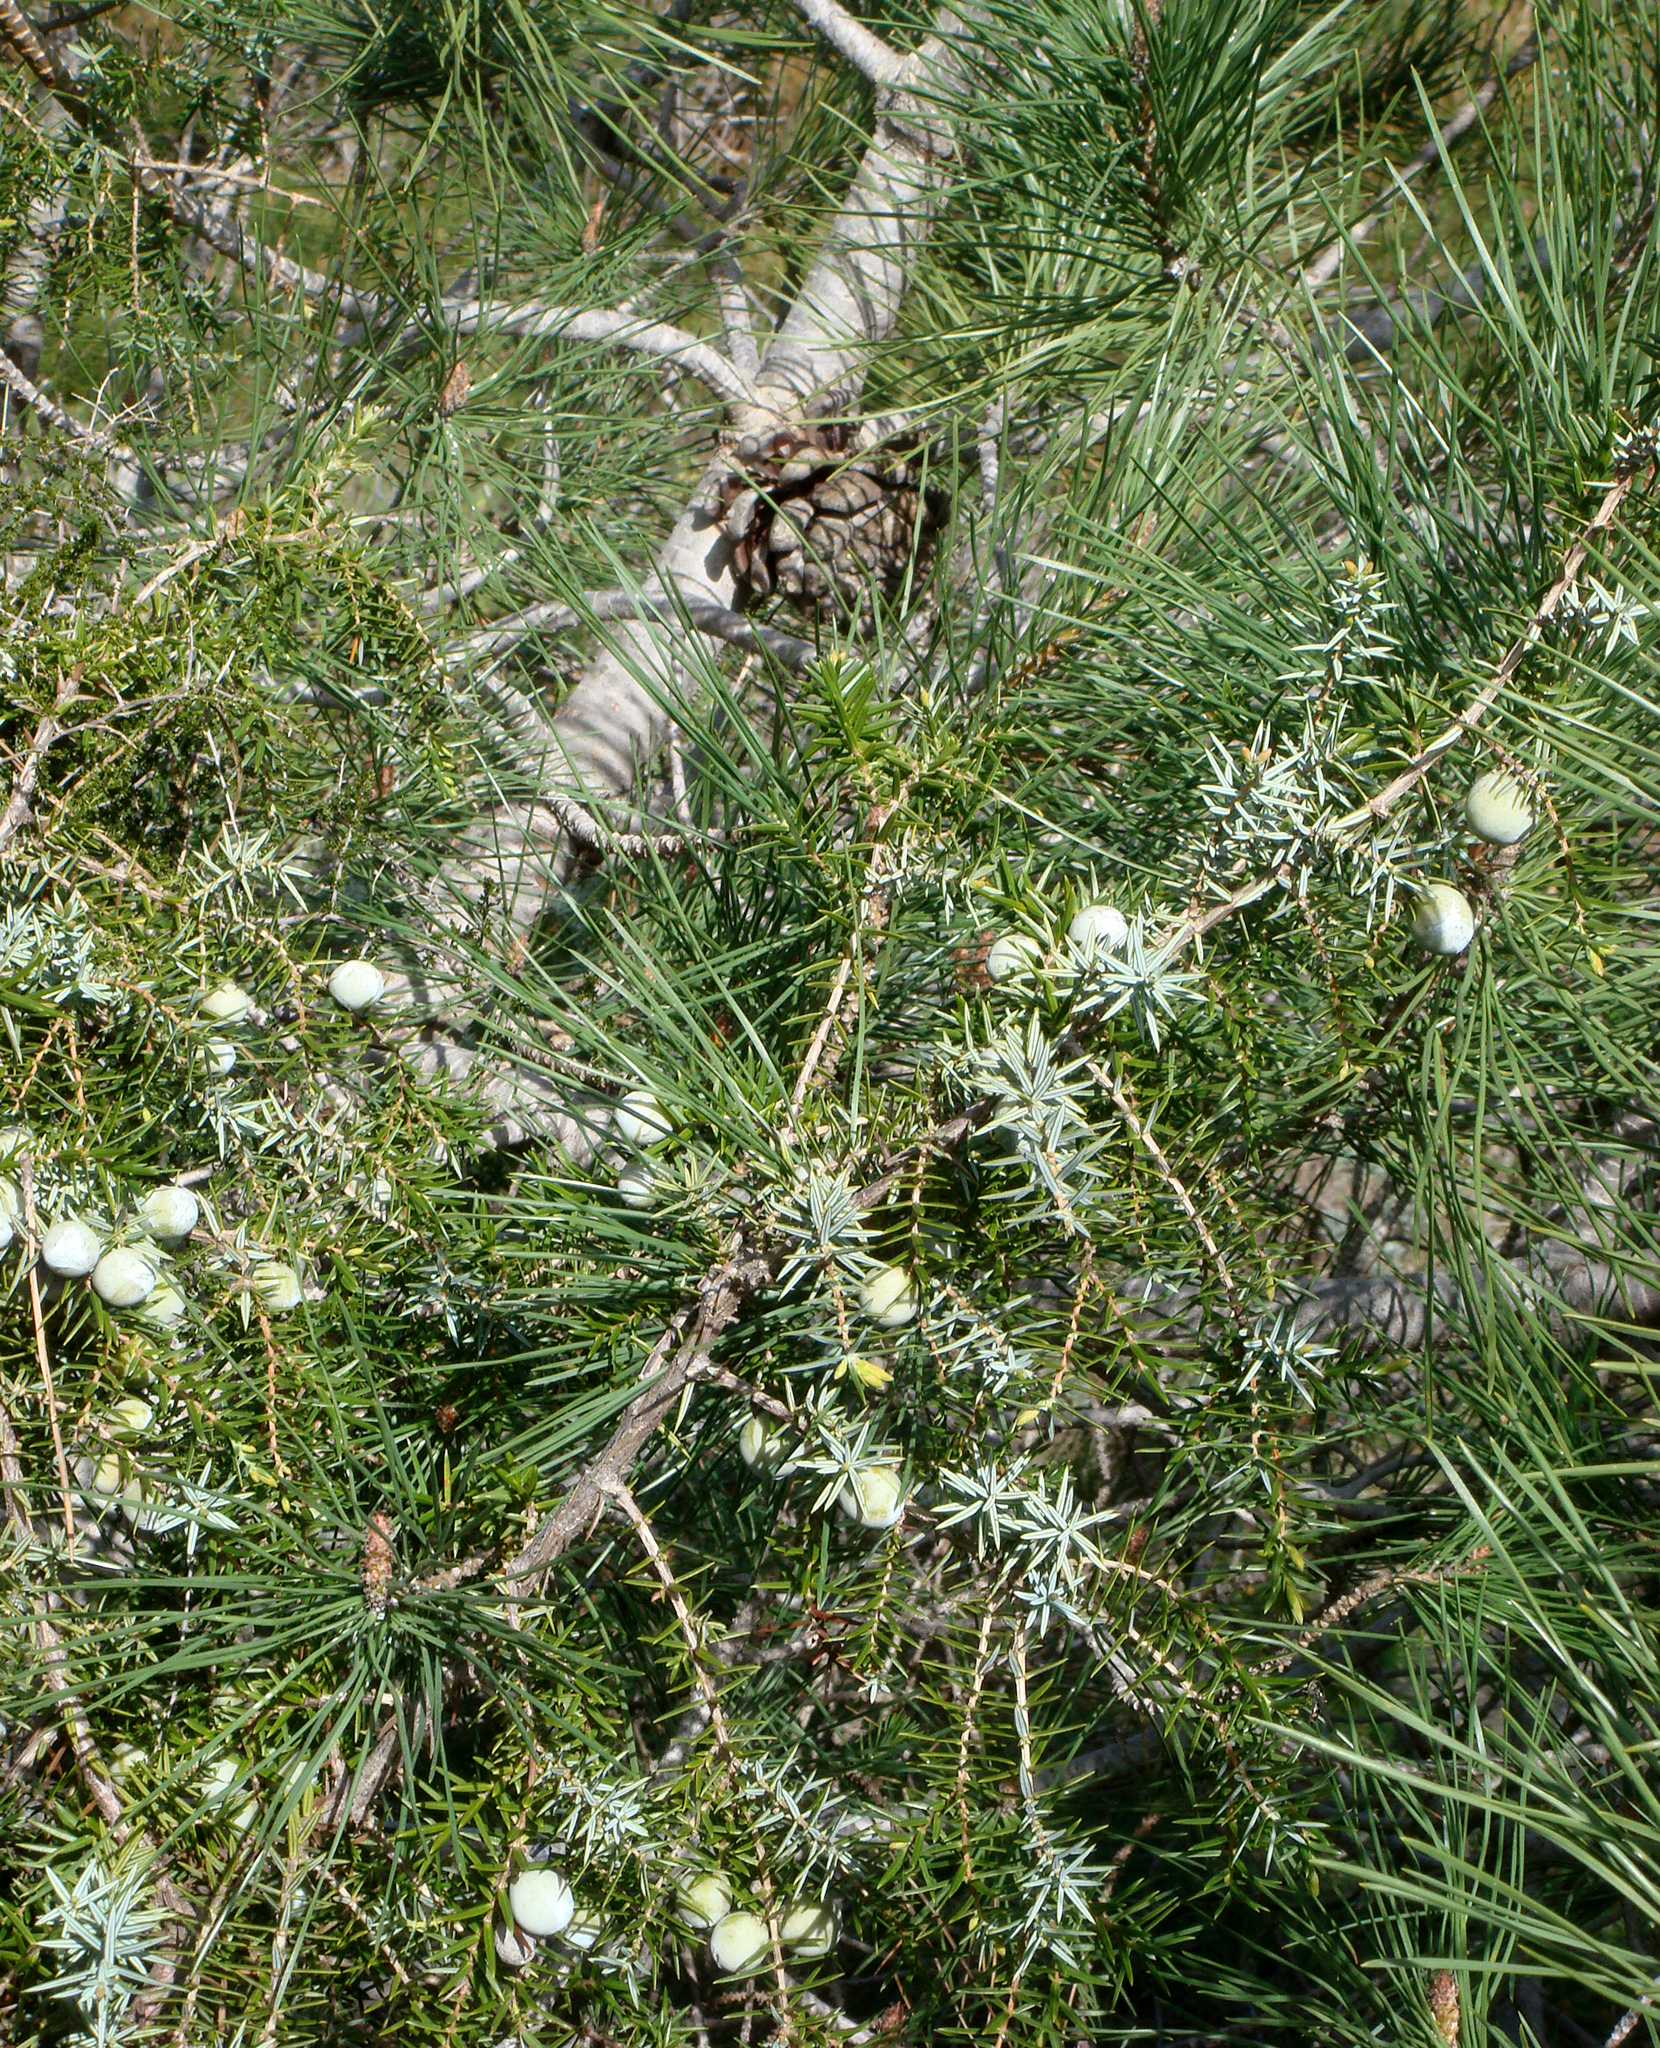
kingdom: Plantae
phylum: Tracheophyta
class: Pinopsida
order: Pinales
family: Cupressaceae
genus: Juniperus
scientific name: Juniperus oxycedrus
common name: Prickly juniper
